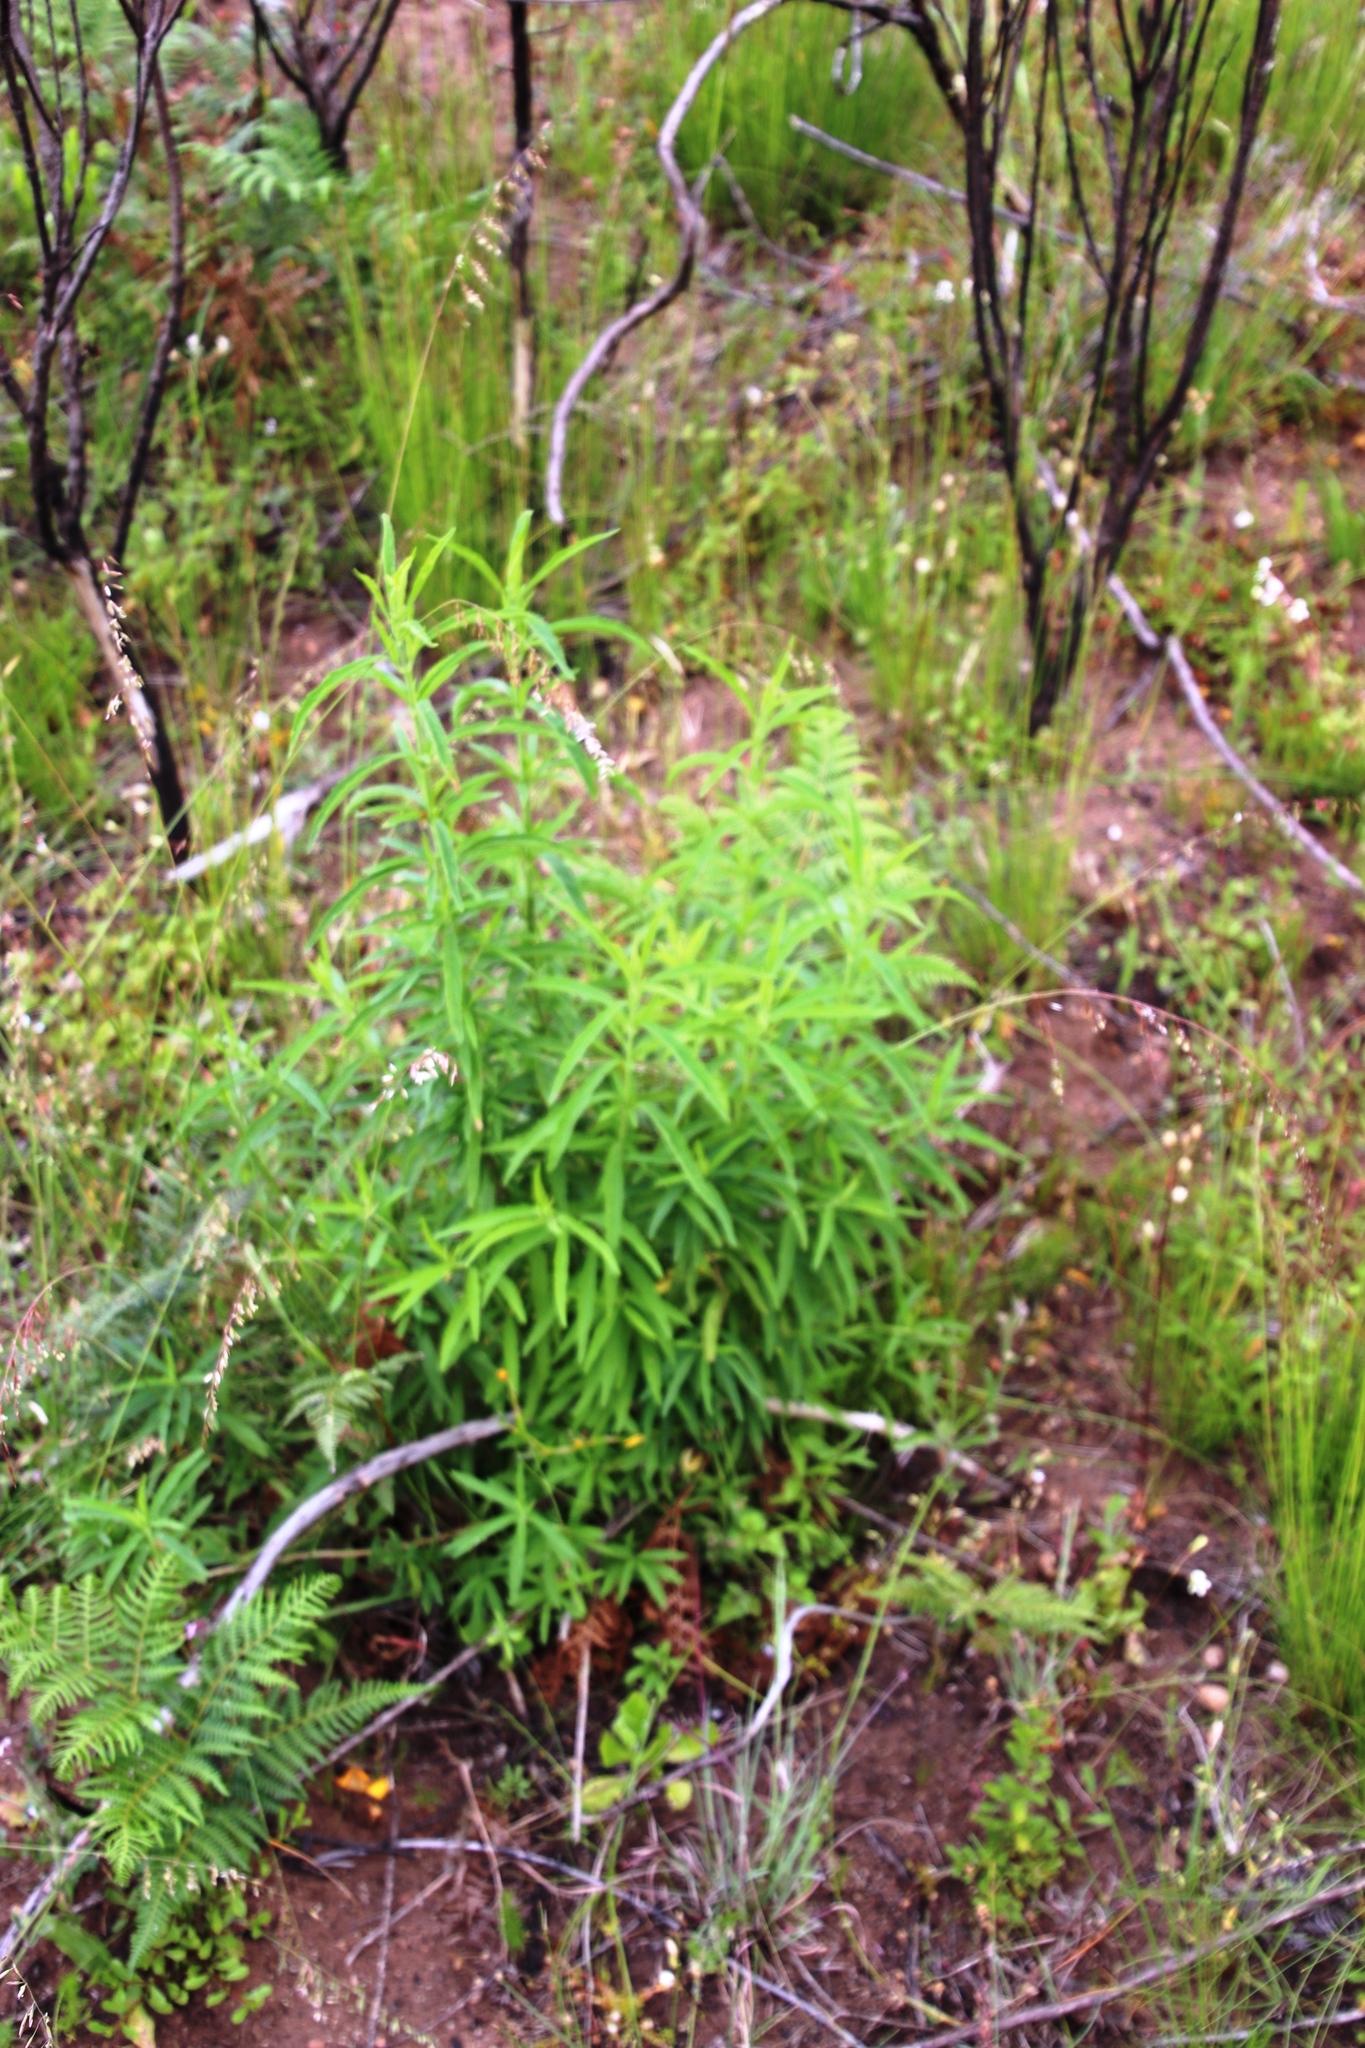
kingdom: Plantae
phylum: Tracheophyta
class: Magnoliopsida
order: Lamiales
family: Lamiaceae
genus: Leonotis
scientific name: Leonotis leonurus
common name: Lion's ear
